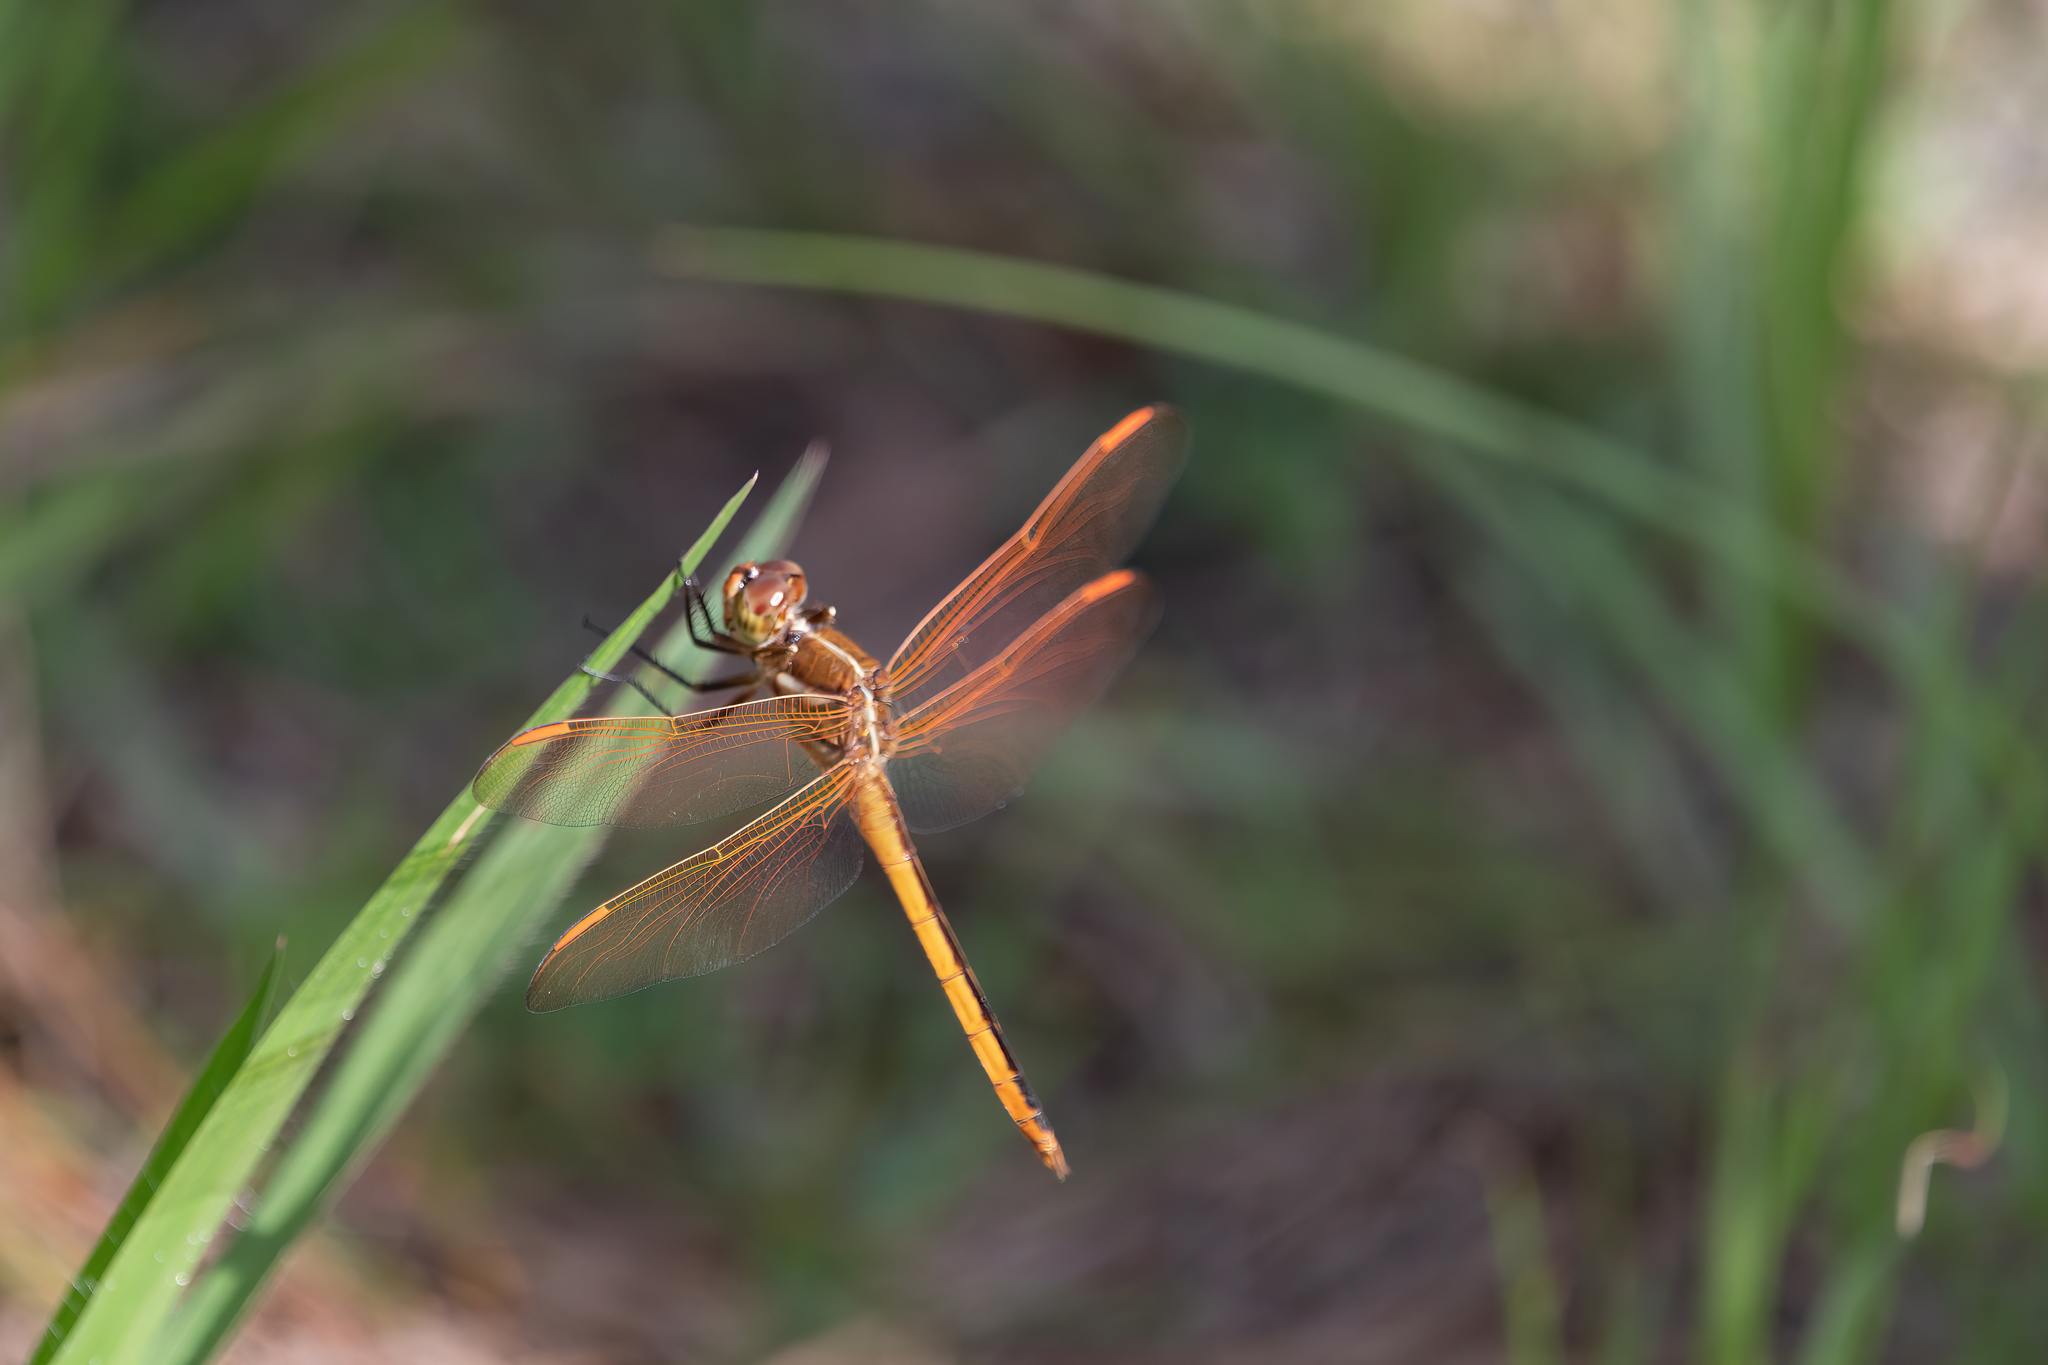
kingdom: Animalia
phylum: Arthropoda
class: Insecta
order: Odonata
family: Libellulidae
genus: Libellula
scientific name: Libellula auripennis
